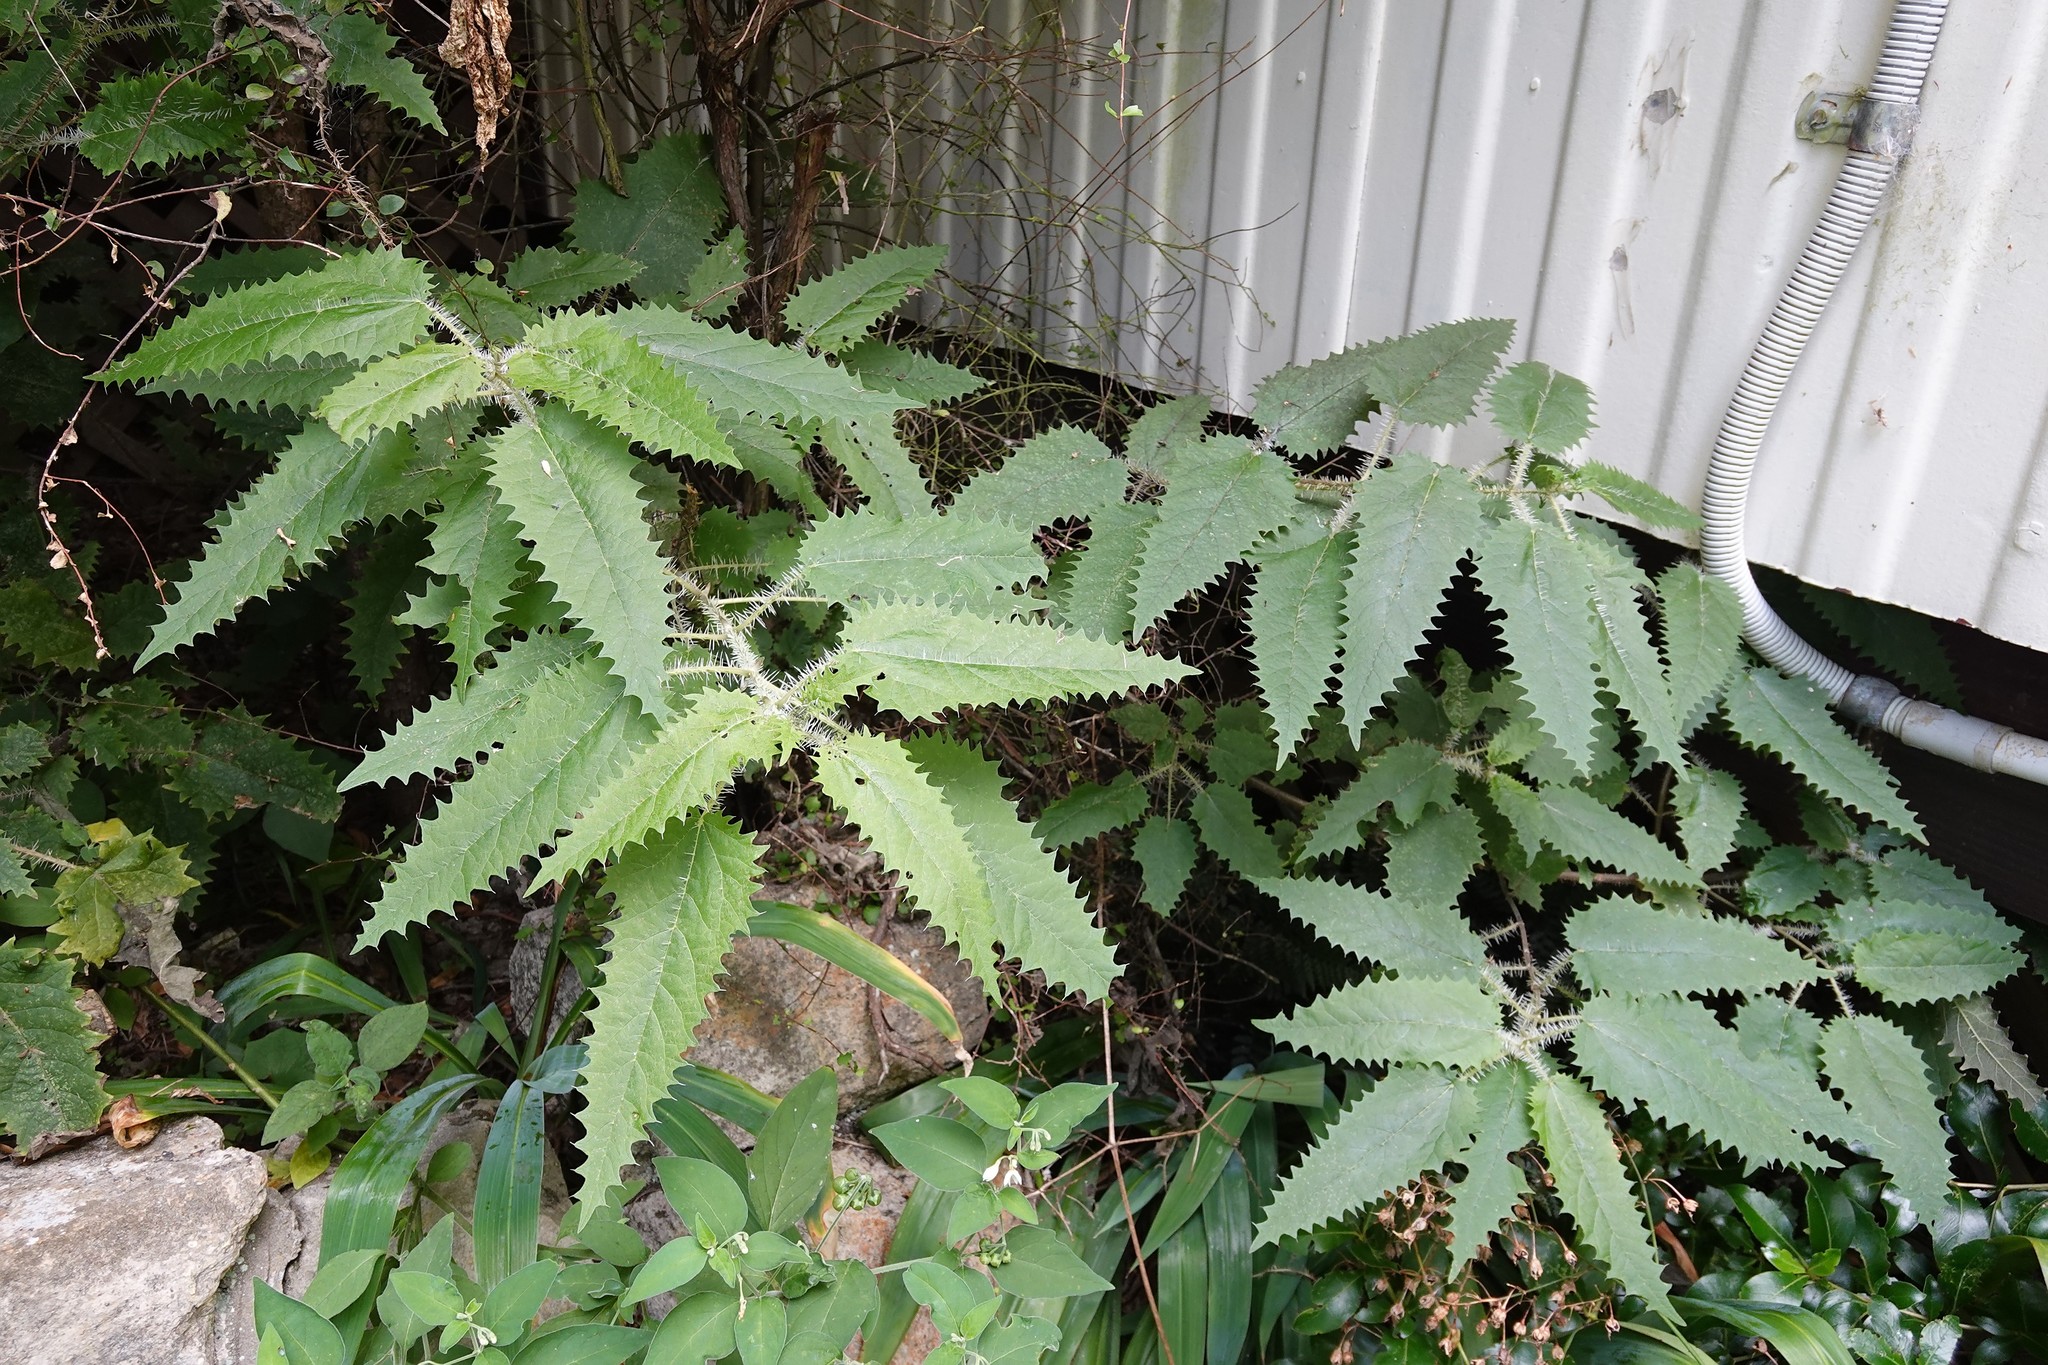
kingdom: Plantae
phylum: Tracheophyta
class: Magnoliopsida
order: Rosales
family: Urticaceae
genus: Urtica
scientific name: Urtica ferox
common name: Tree nettle
